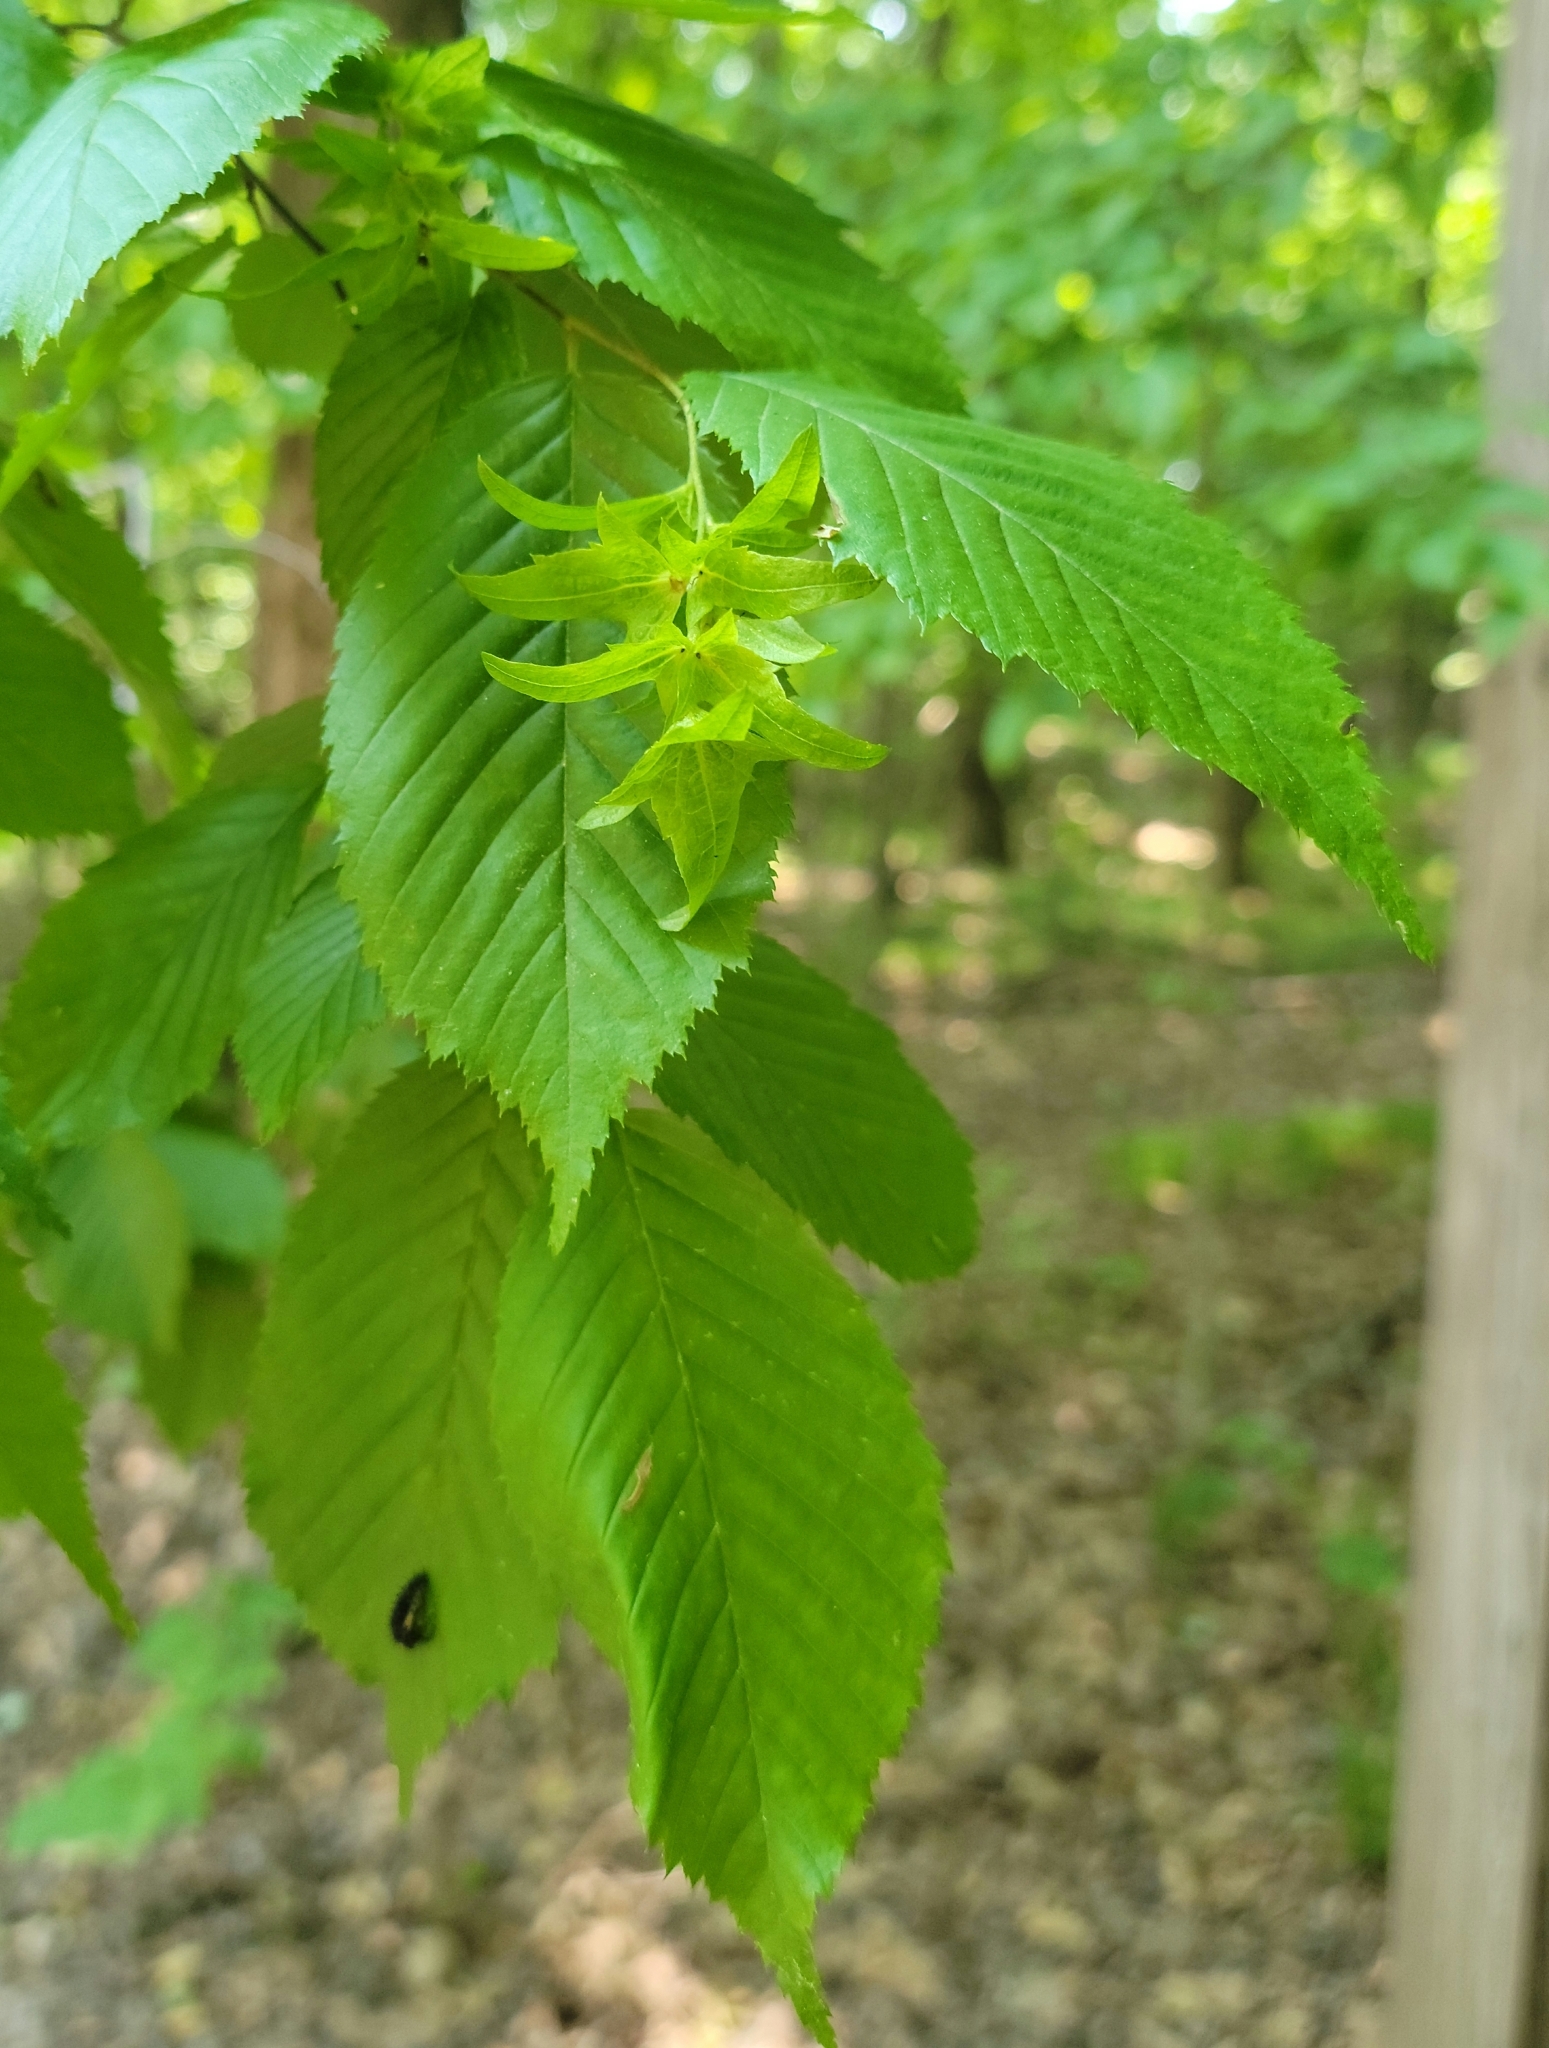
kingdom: Plantae
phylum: Tracheophyta
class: Magnoliopsida
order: Fagales
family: Betulaceae
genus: Carpinus
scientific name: Carpinus caroliniana
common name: American hornbeam
